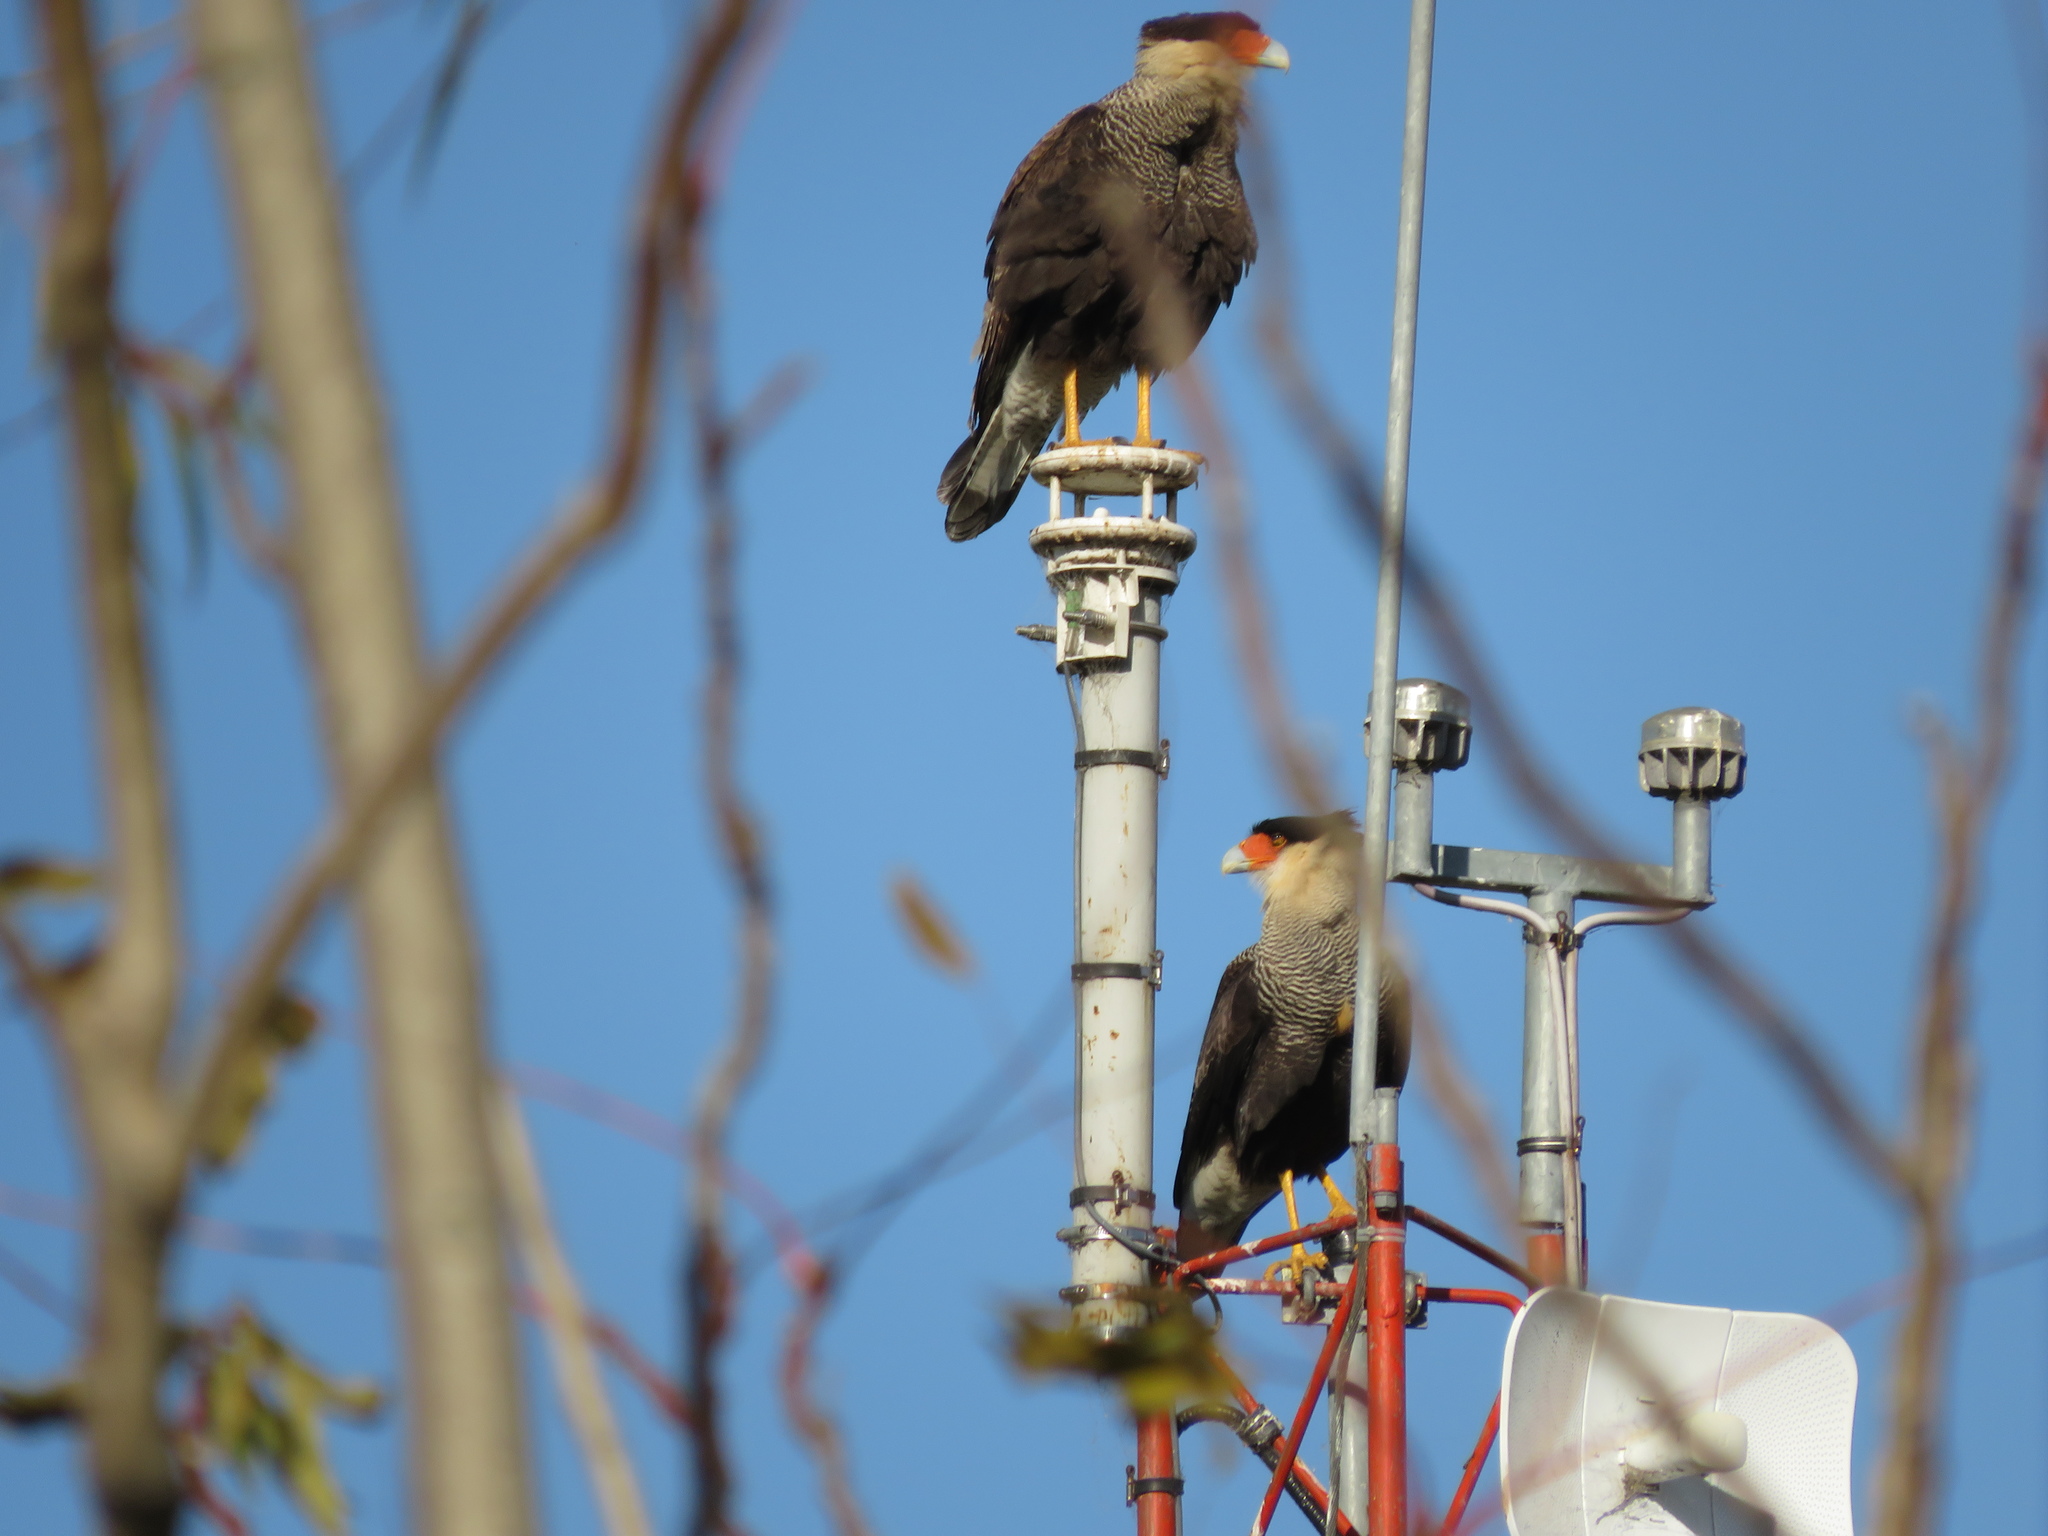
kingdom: Animalia
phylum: Chordata
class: Aves
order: Falconiformes
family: Falconidae
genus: Caracara
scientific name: Caracara plancus
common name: Southern caracara
